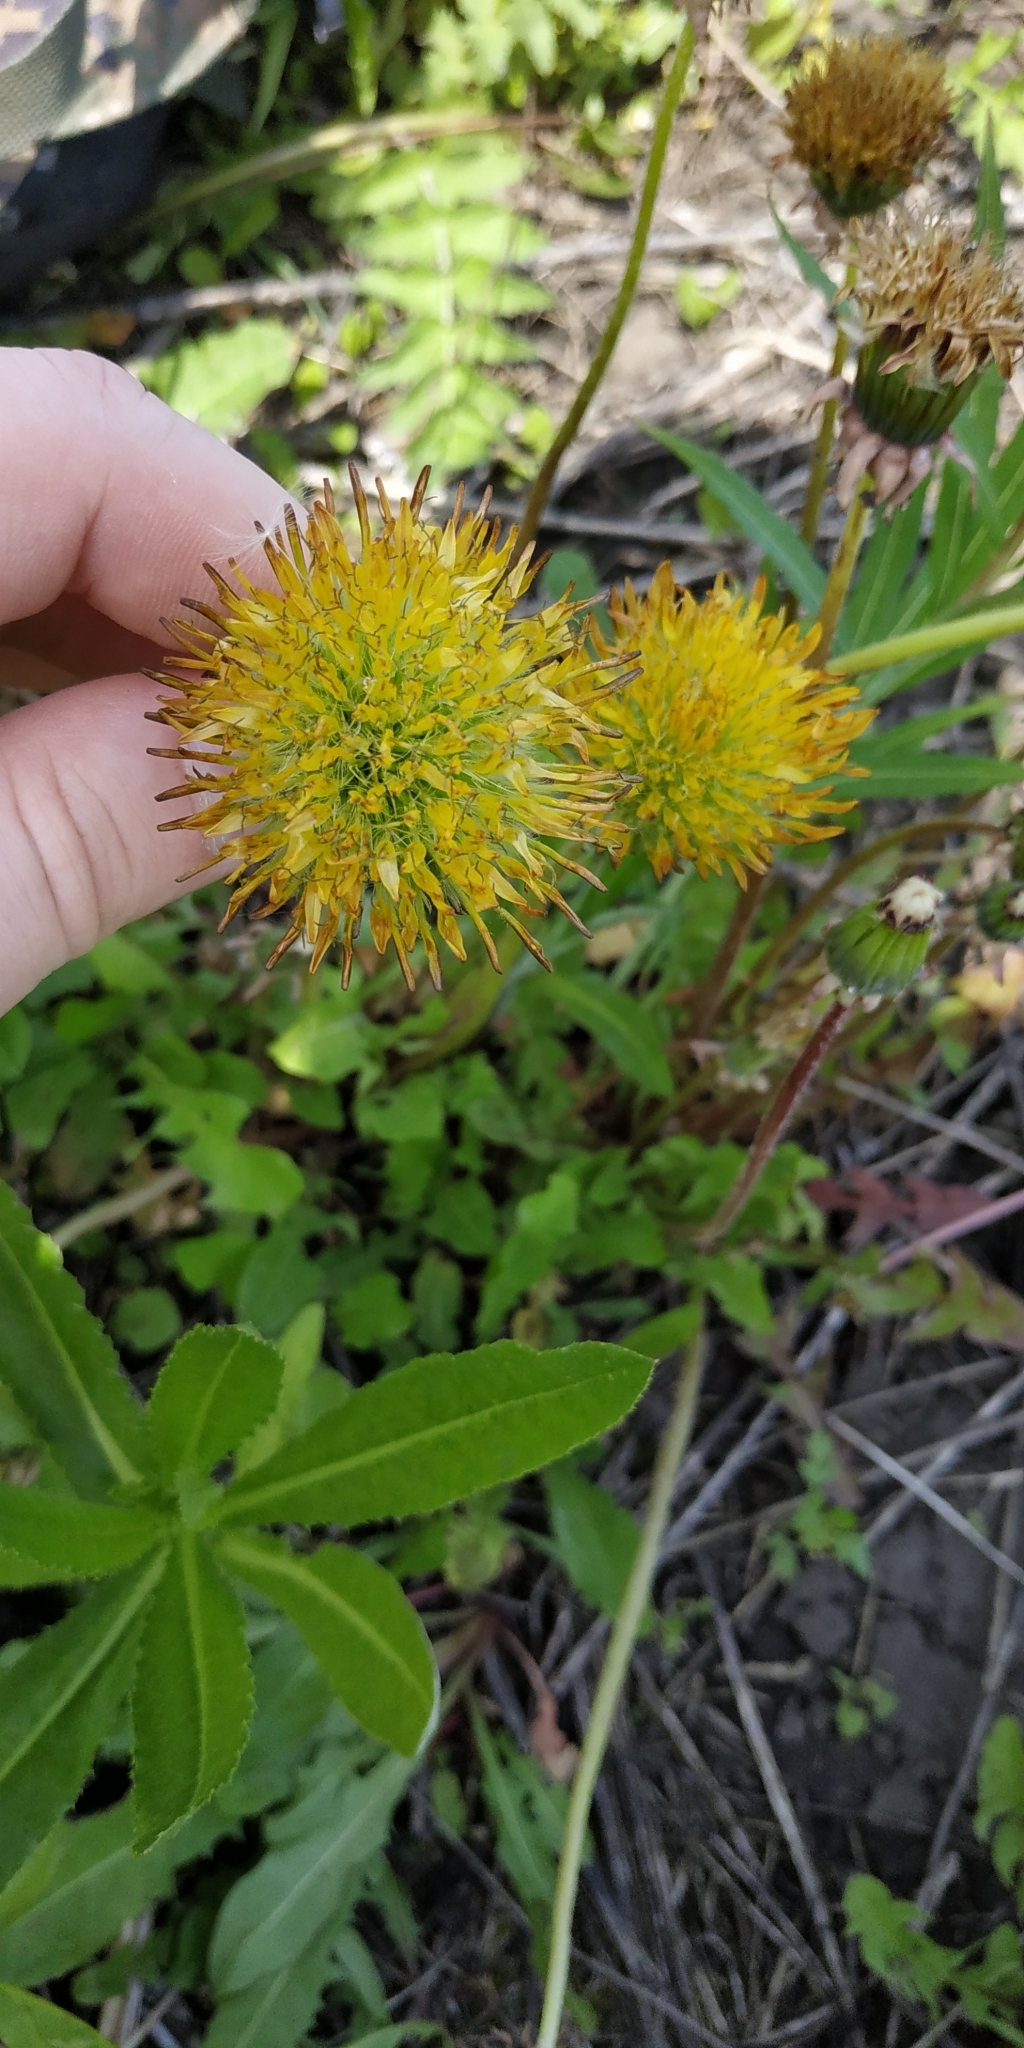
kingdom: Plantae
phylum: Tracheophyta
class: Magnoliopsida
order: Asterales
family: Asteraceae
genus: Taraxacum
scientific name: Taraxacum officinale
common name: Common dandelion
